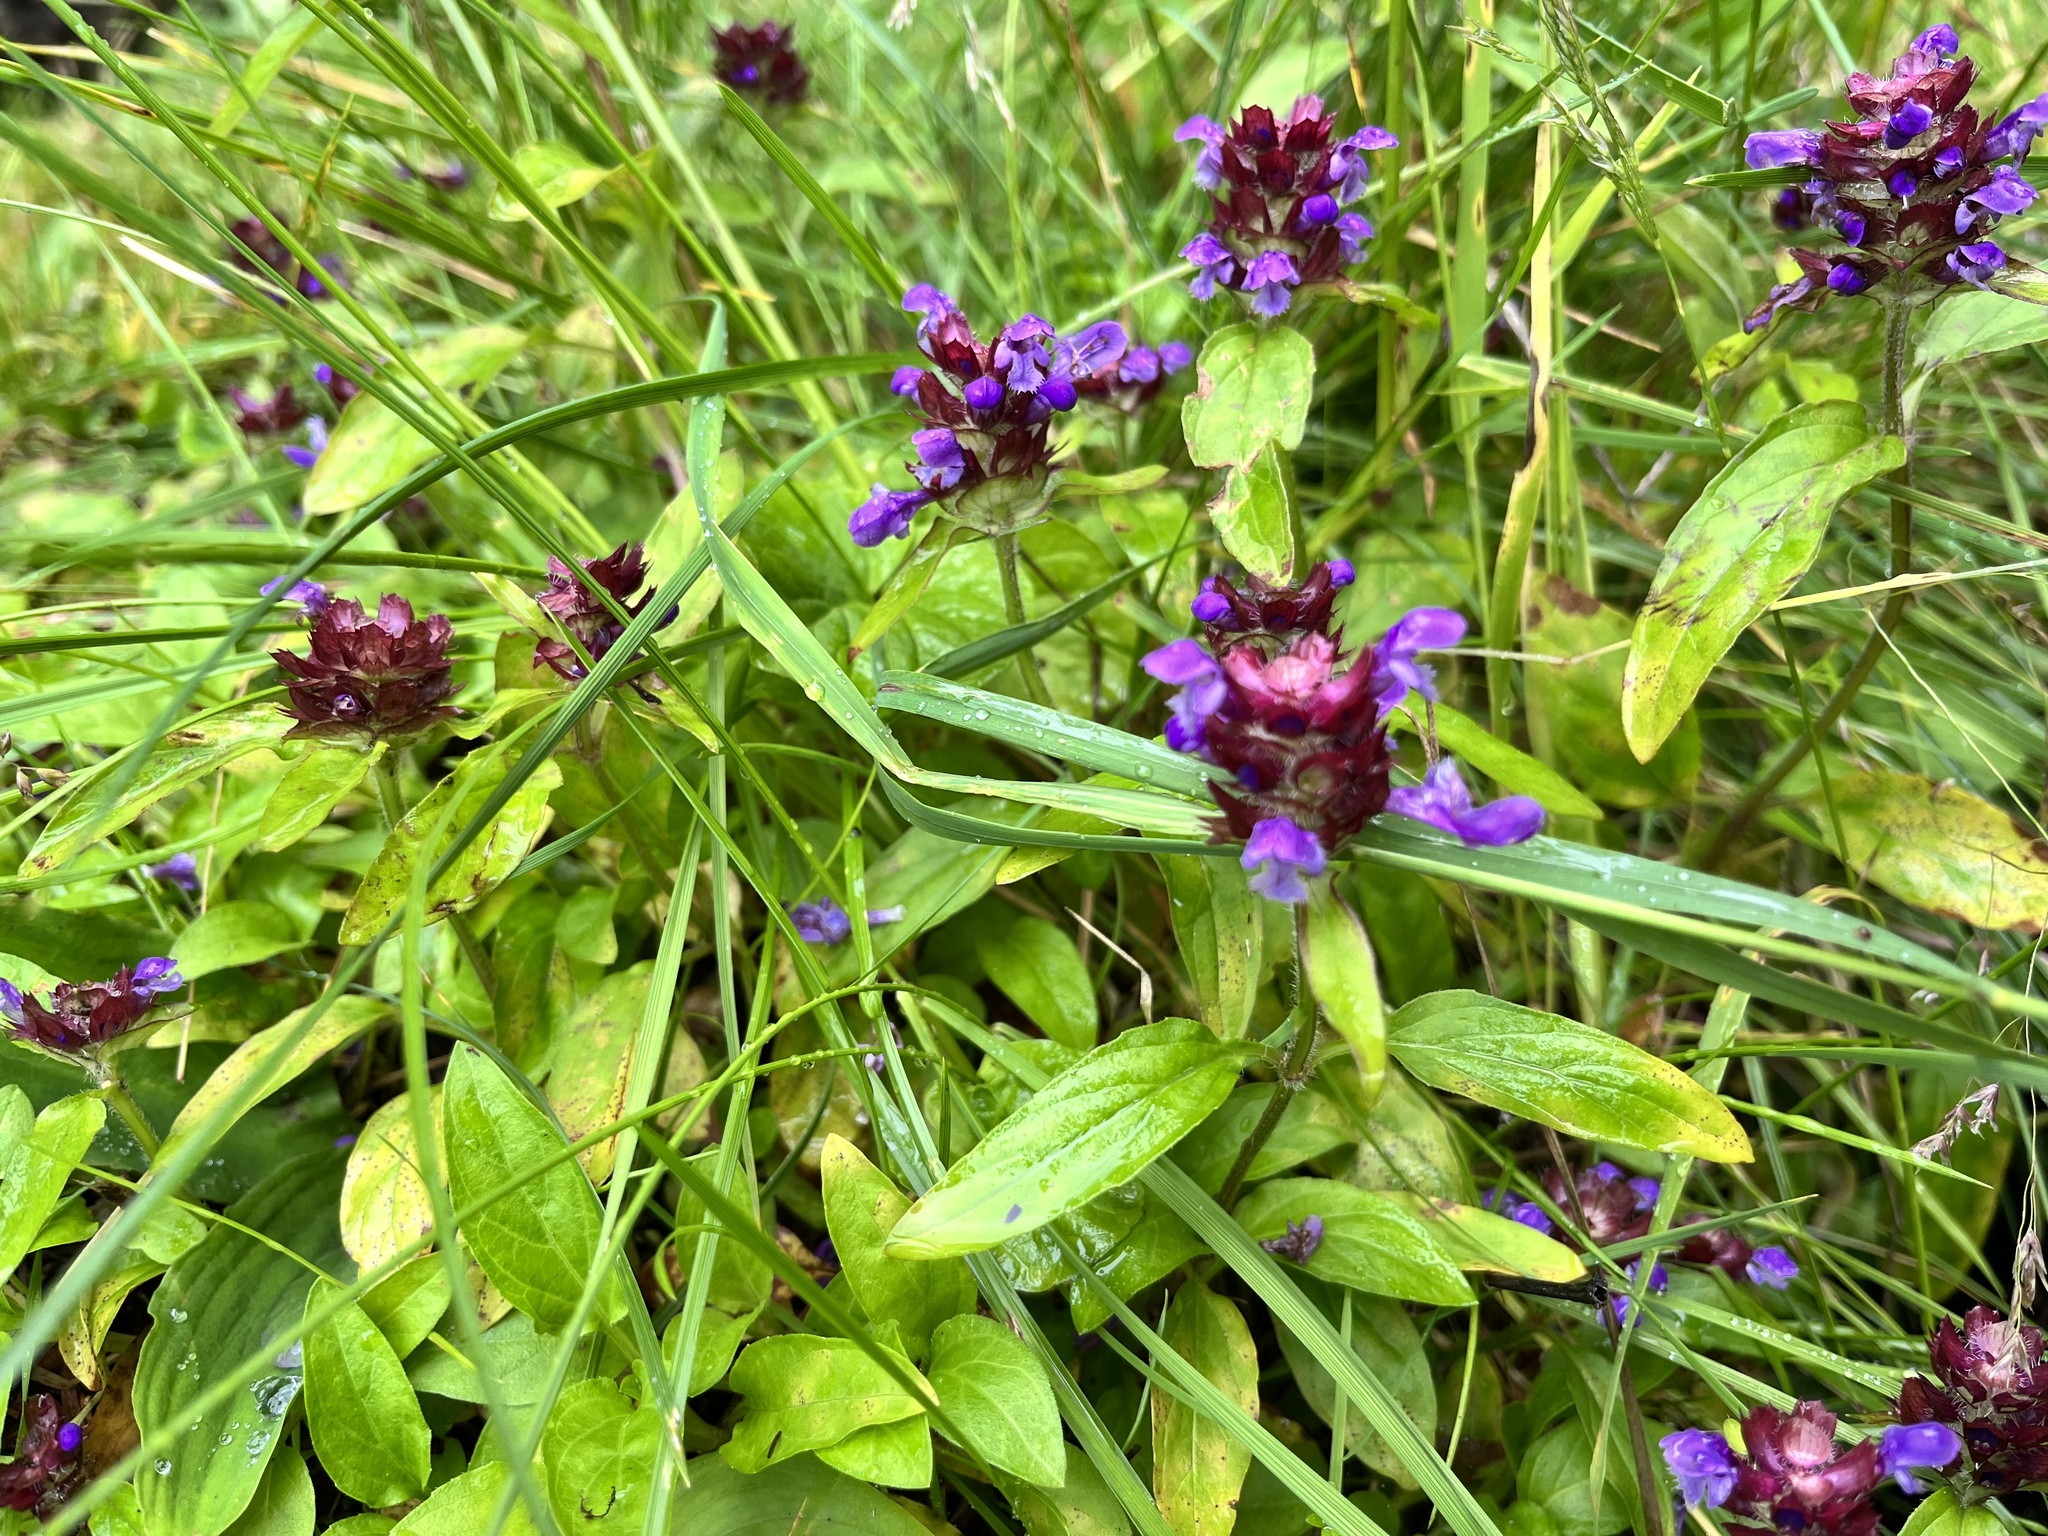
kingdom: Plantae
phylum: Tracheophyta
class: Magnoliopsida
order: Lamiales
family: Lamiaceae
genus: Prunella
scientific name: Prunella vulgaris
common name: Heal-all
